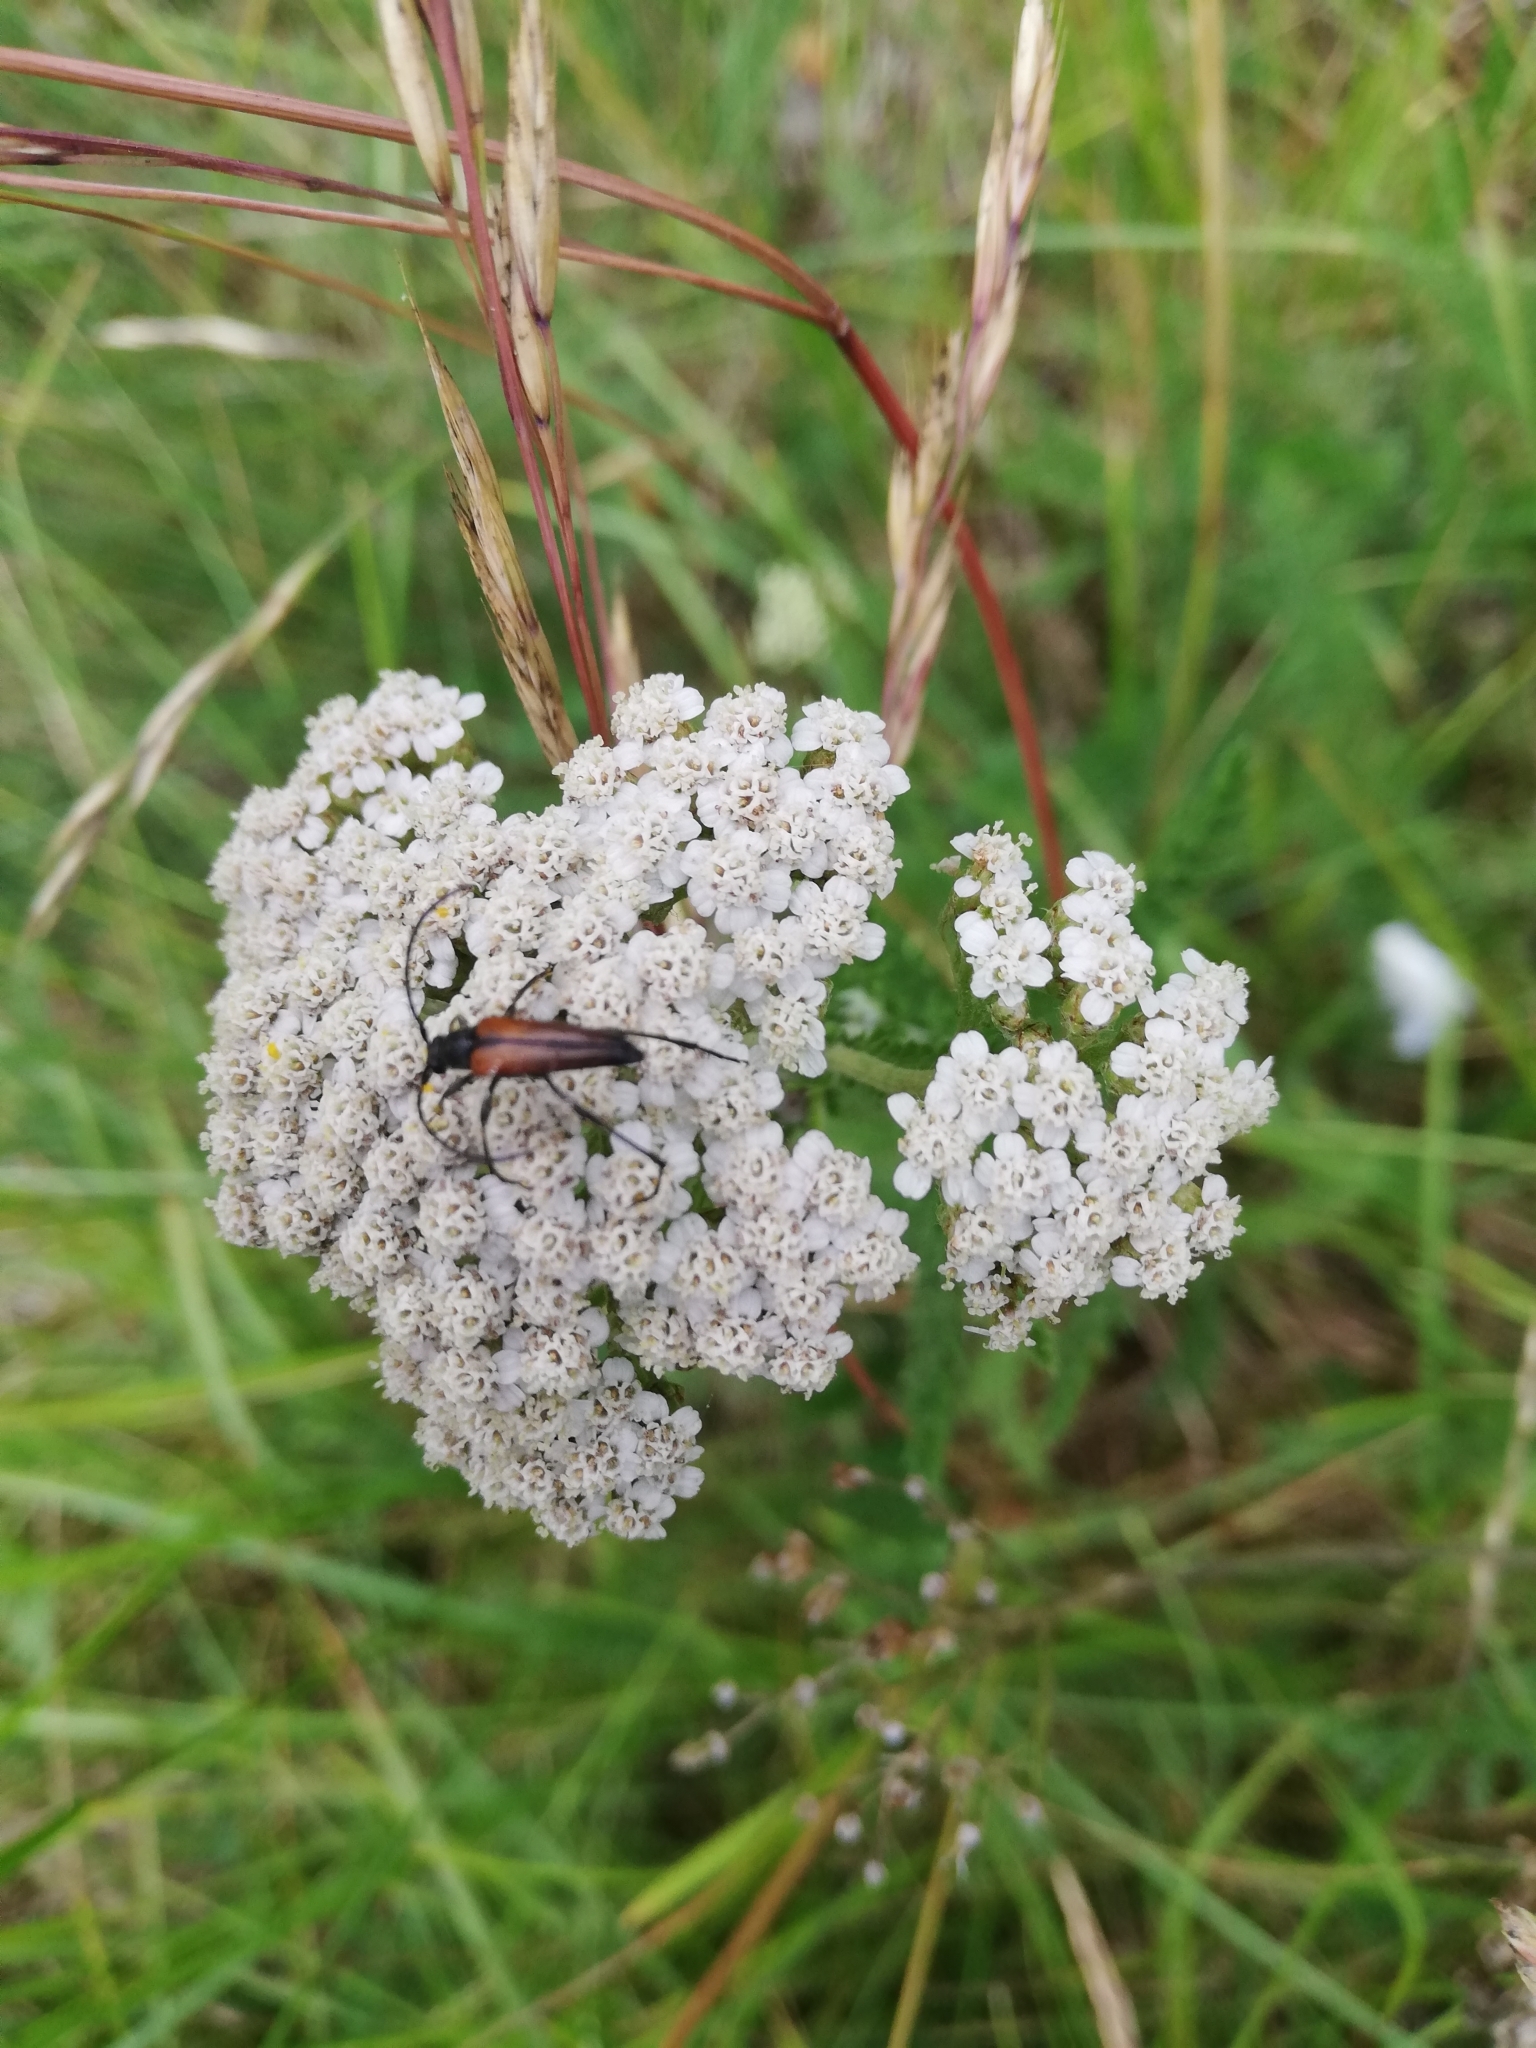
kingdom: Animalia
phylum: Arthropoda
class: Insecta
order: Coleoptera
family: Cerambycidae
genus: Stenurella
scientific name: Stenurella melanura
